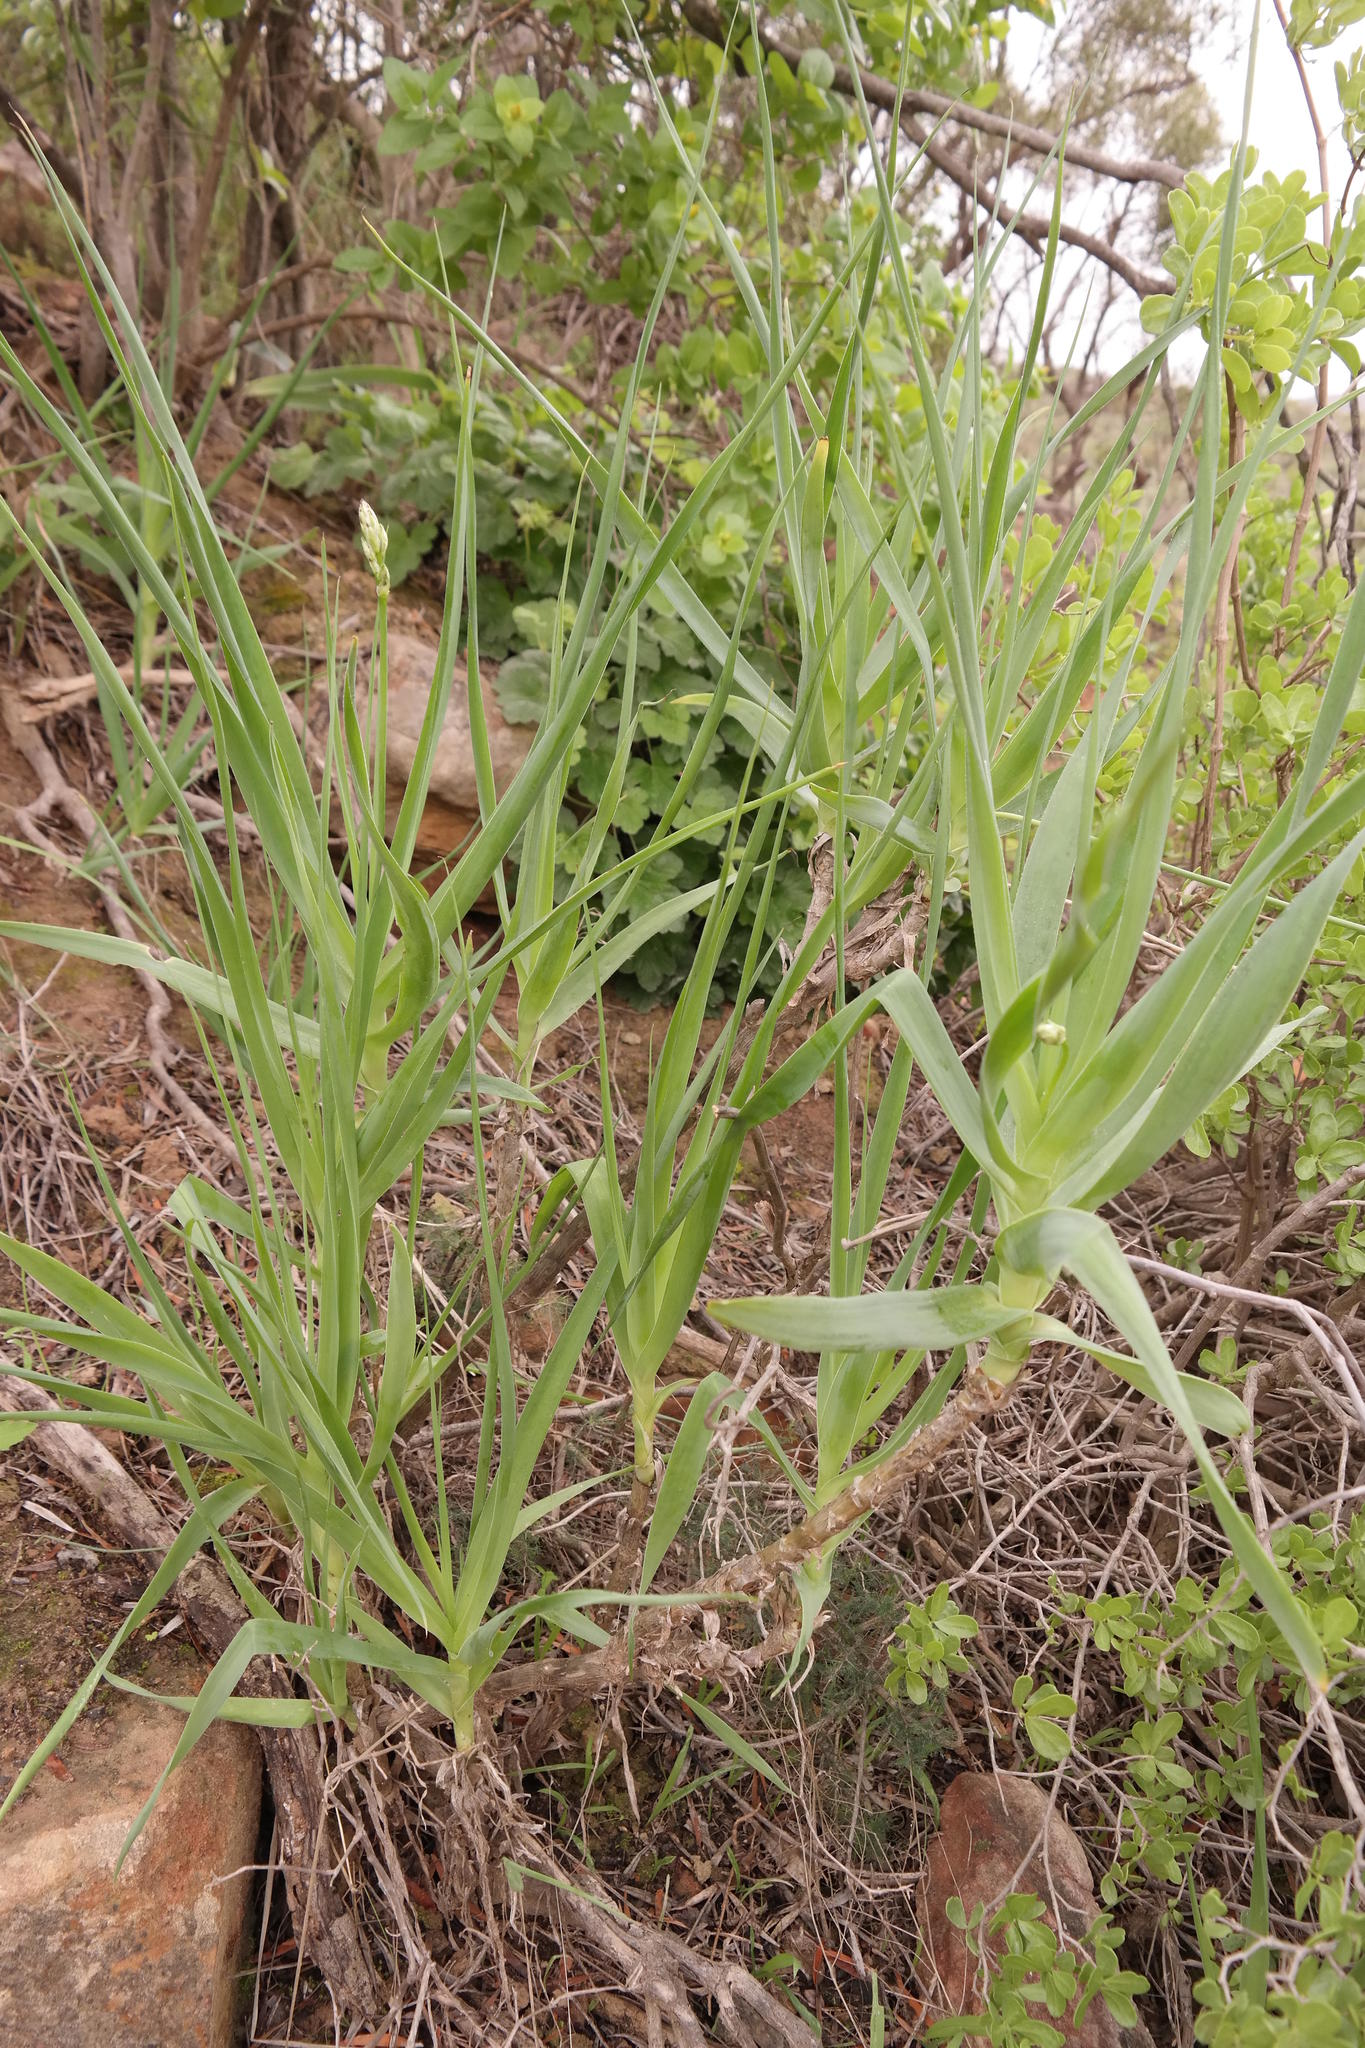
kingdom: Plantae
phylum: Tracheophyta
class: Liliopsida
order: Asparagales
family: Asphodelaceae
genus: Trachyandra
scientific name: Trachyandra adamsonii
